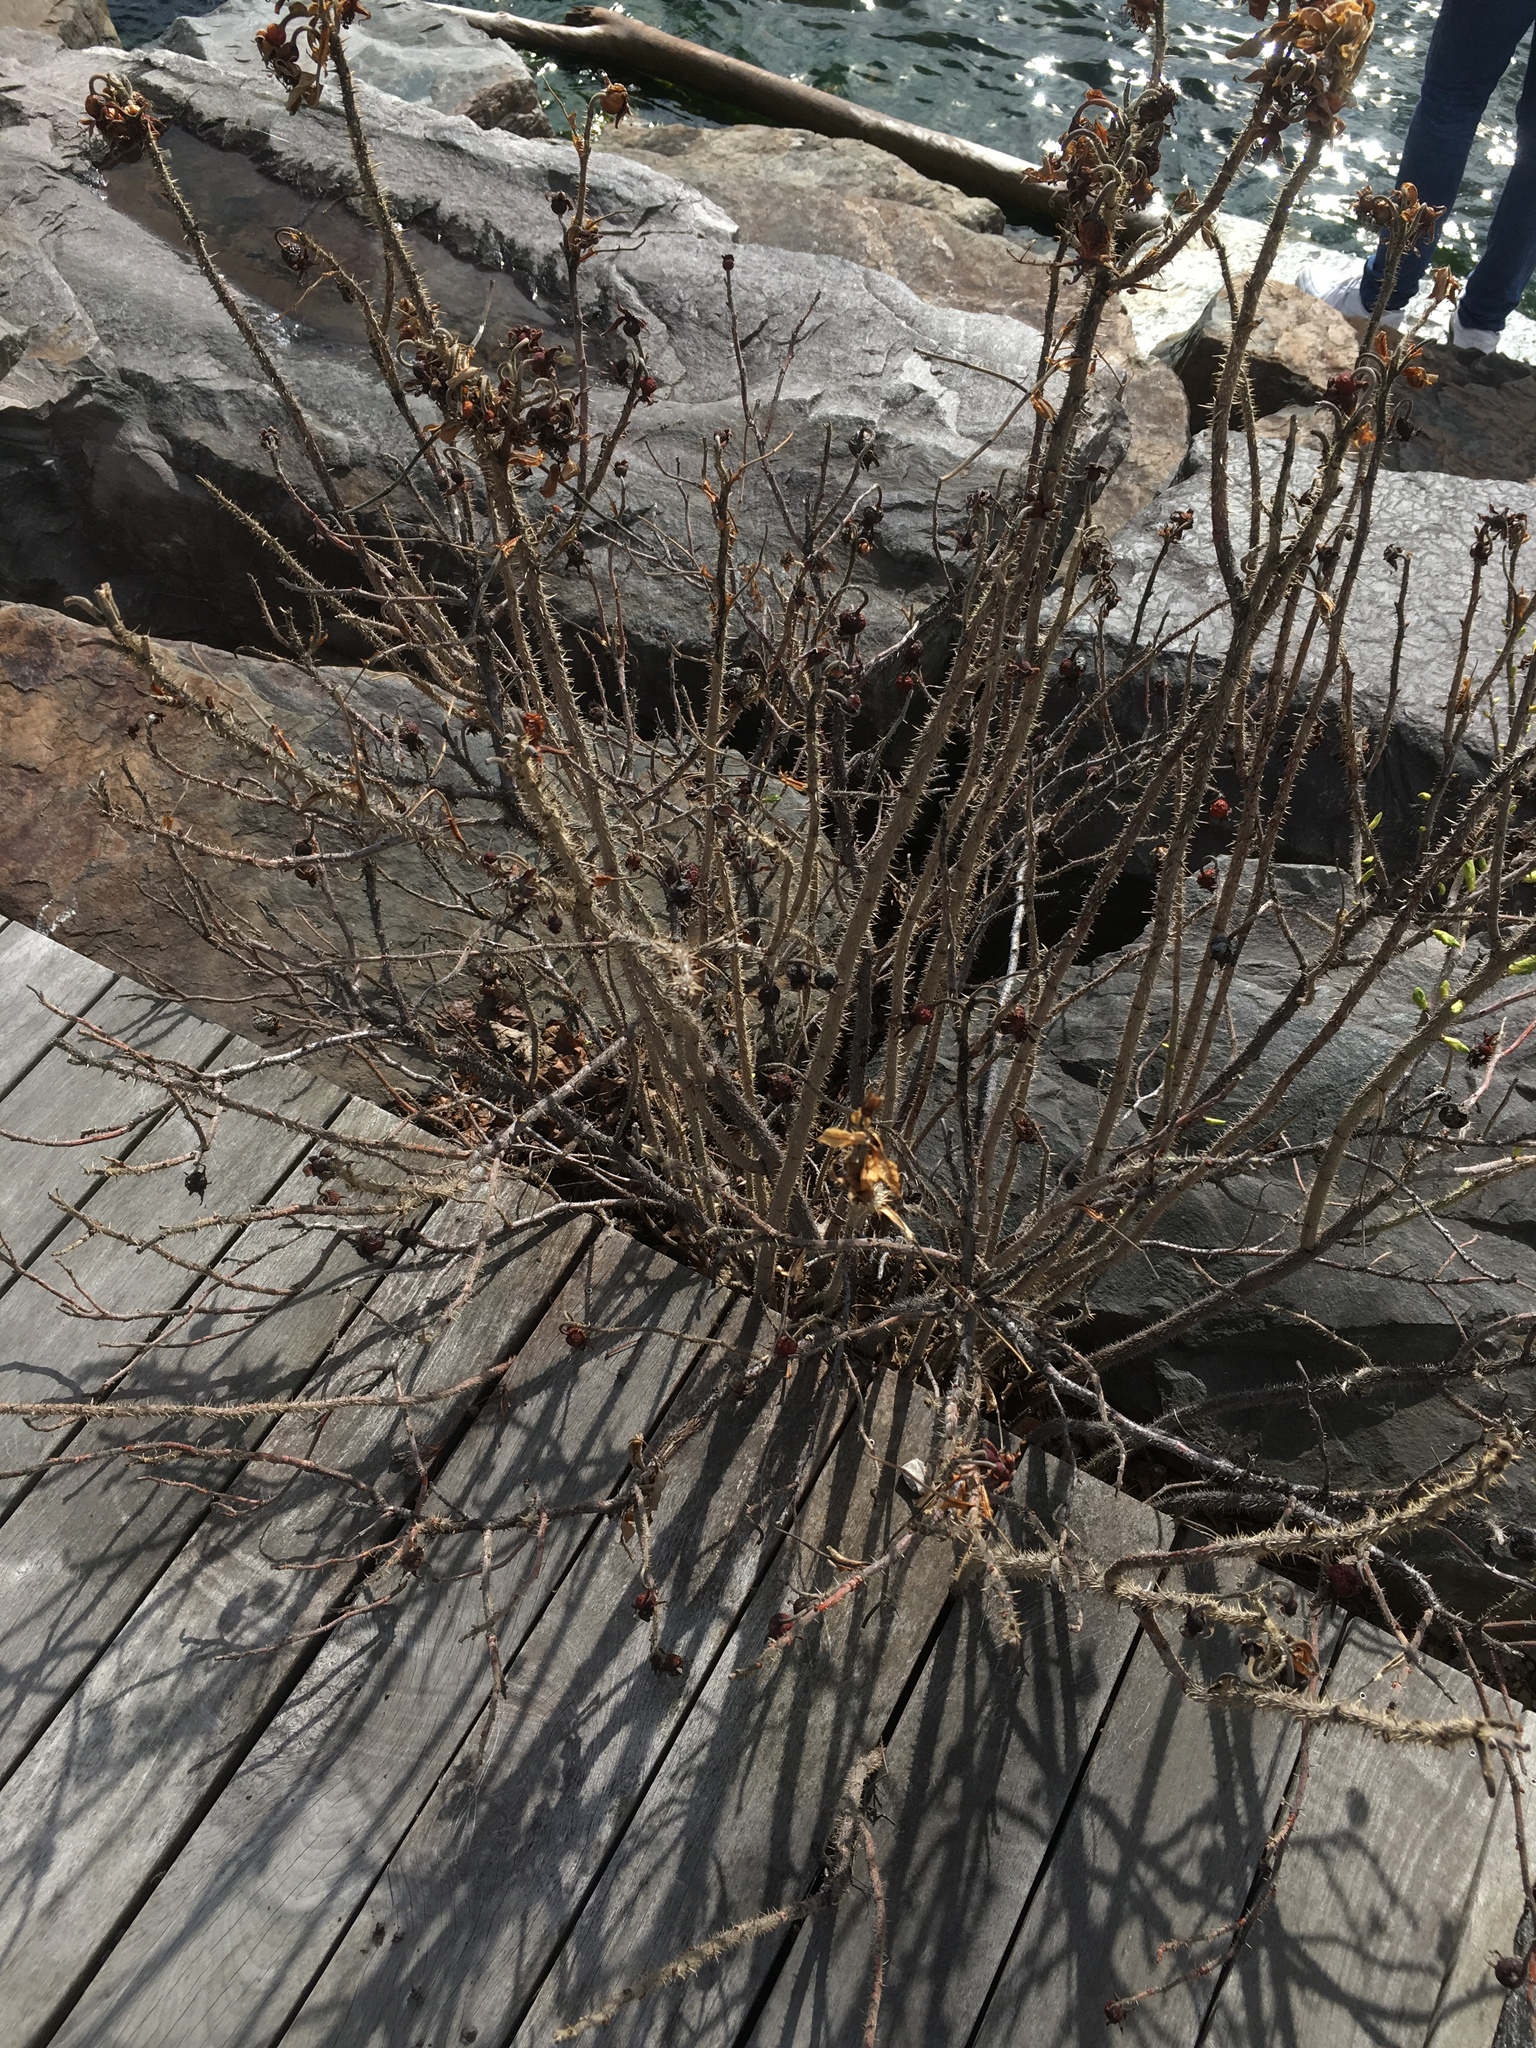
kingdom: Plantae
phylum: Tracheophyta
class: Magnoliopsida
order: Rosales
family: Rosaceae
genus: Rosa
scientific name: Rosa rugosa
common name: Japanese rose
